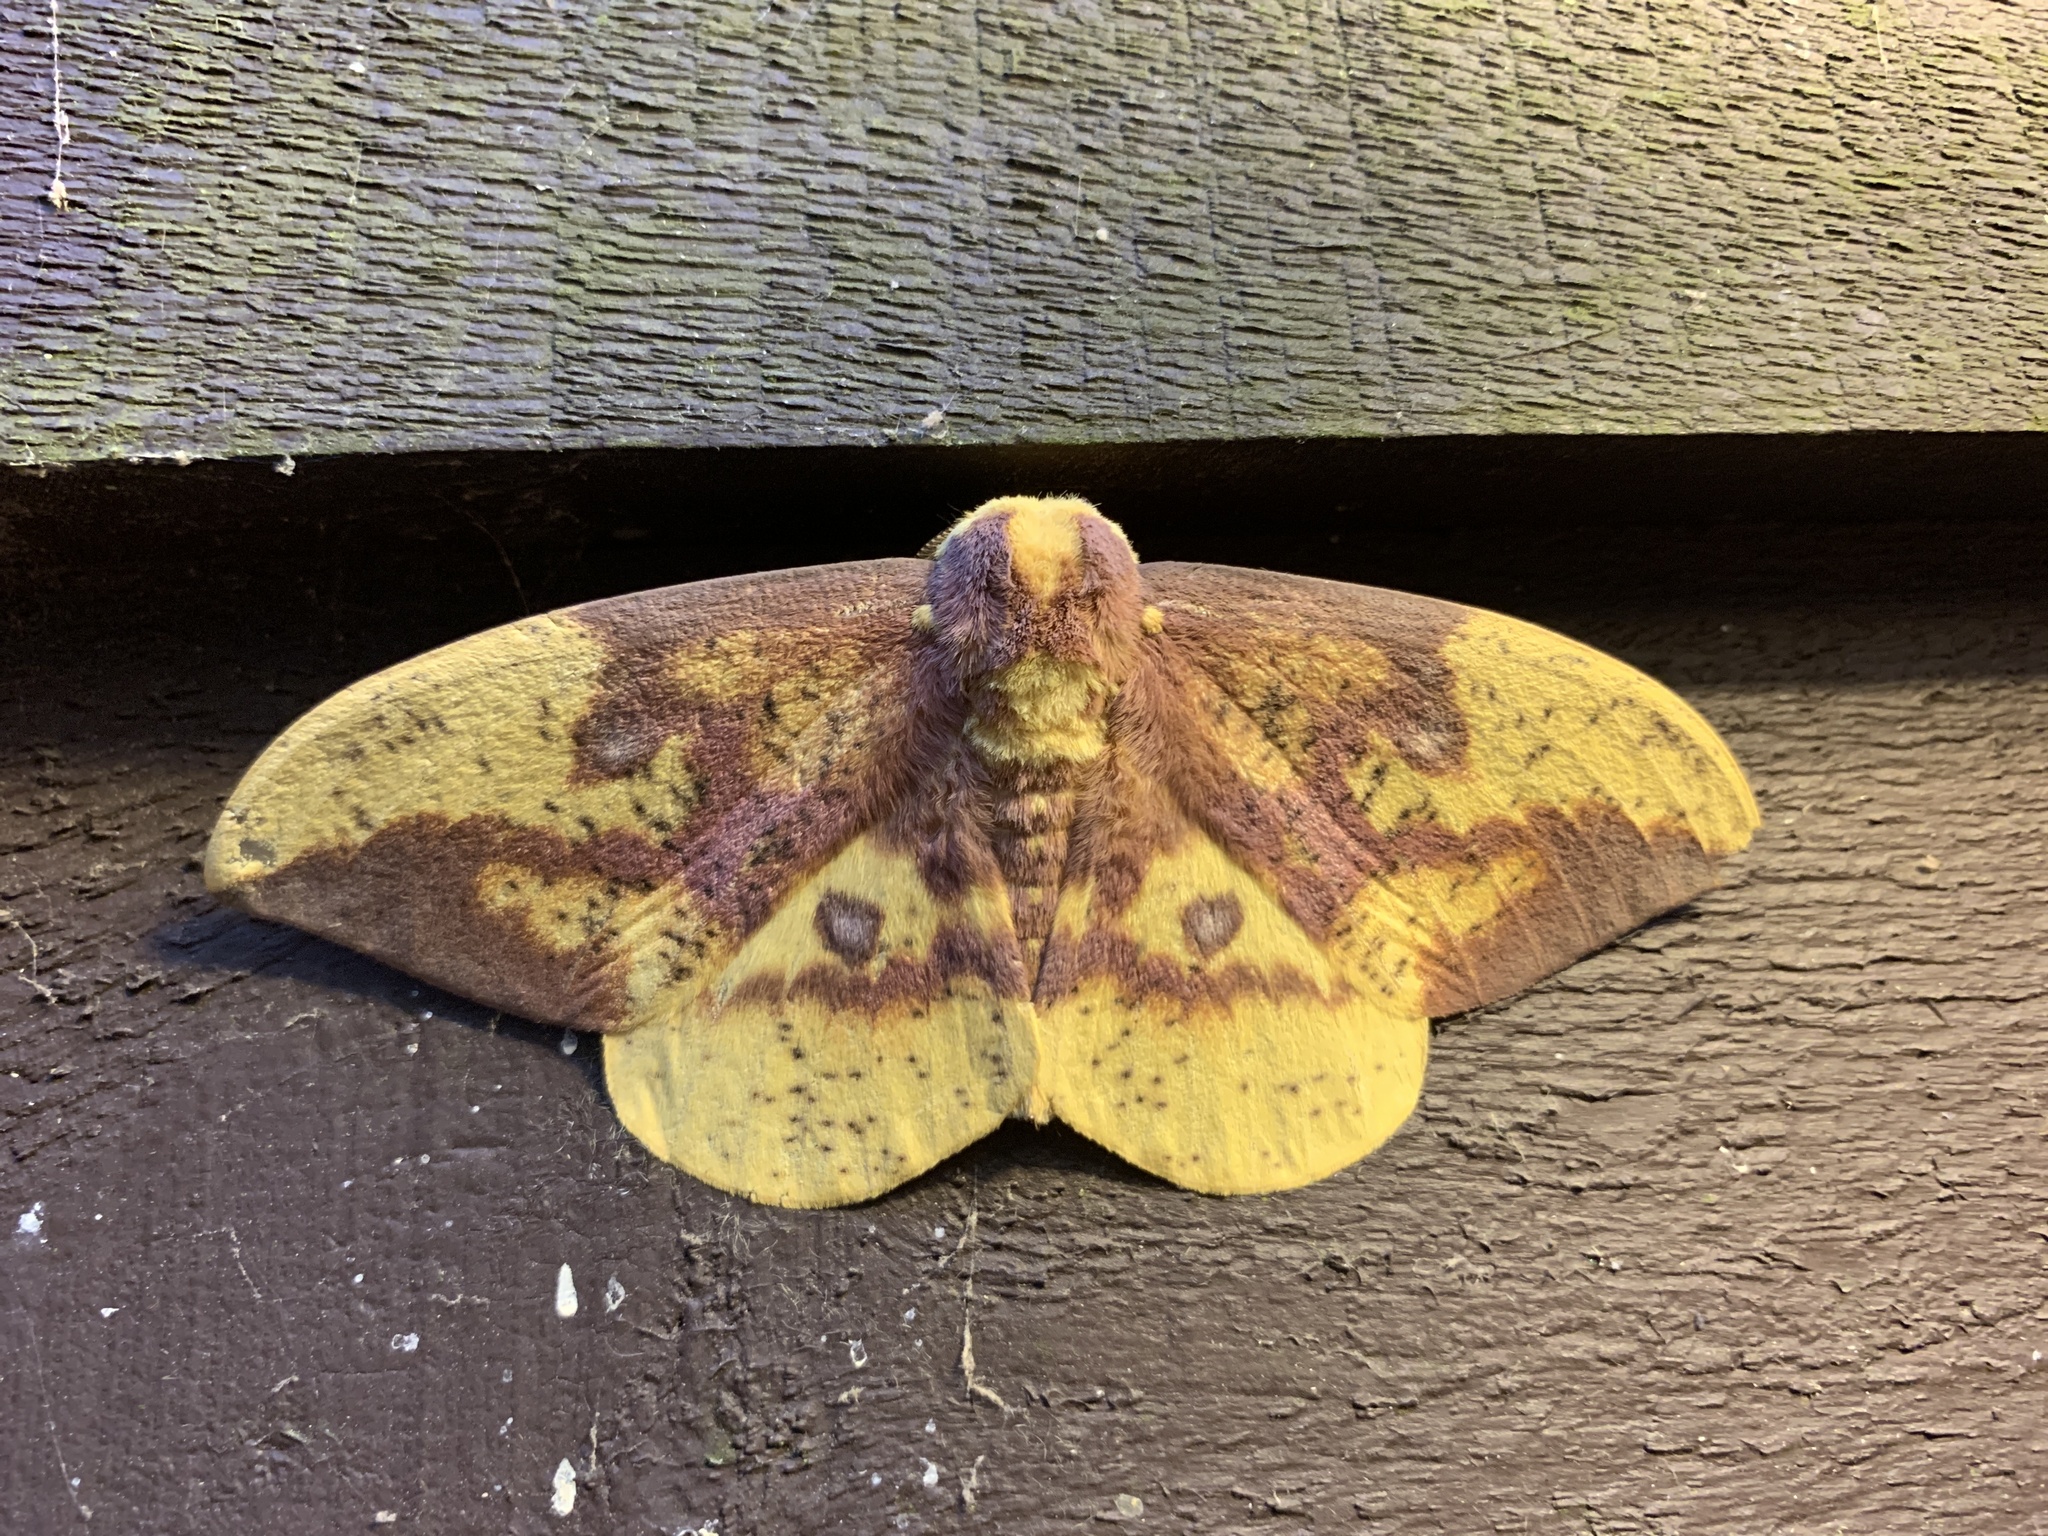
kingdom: Animalia
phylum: Arthropoda
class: Insecta
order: Lepidoptera
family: Saturniidae
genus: Eacles
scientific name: Eacles imperialis
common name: Imperial moth
